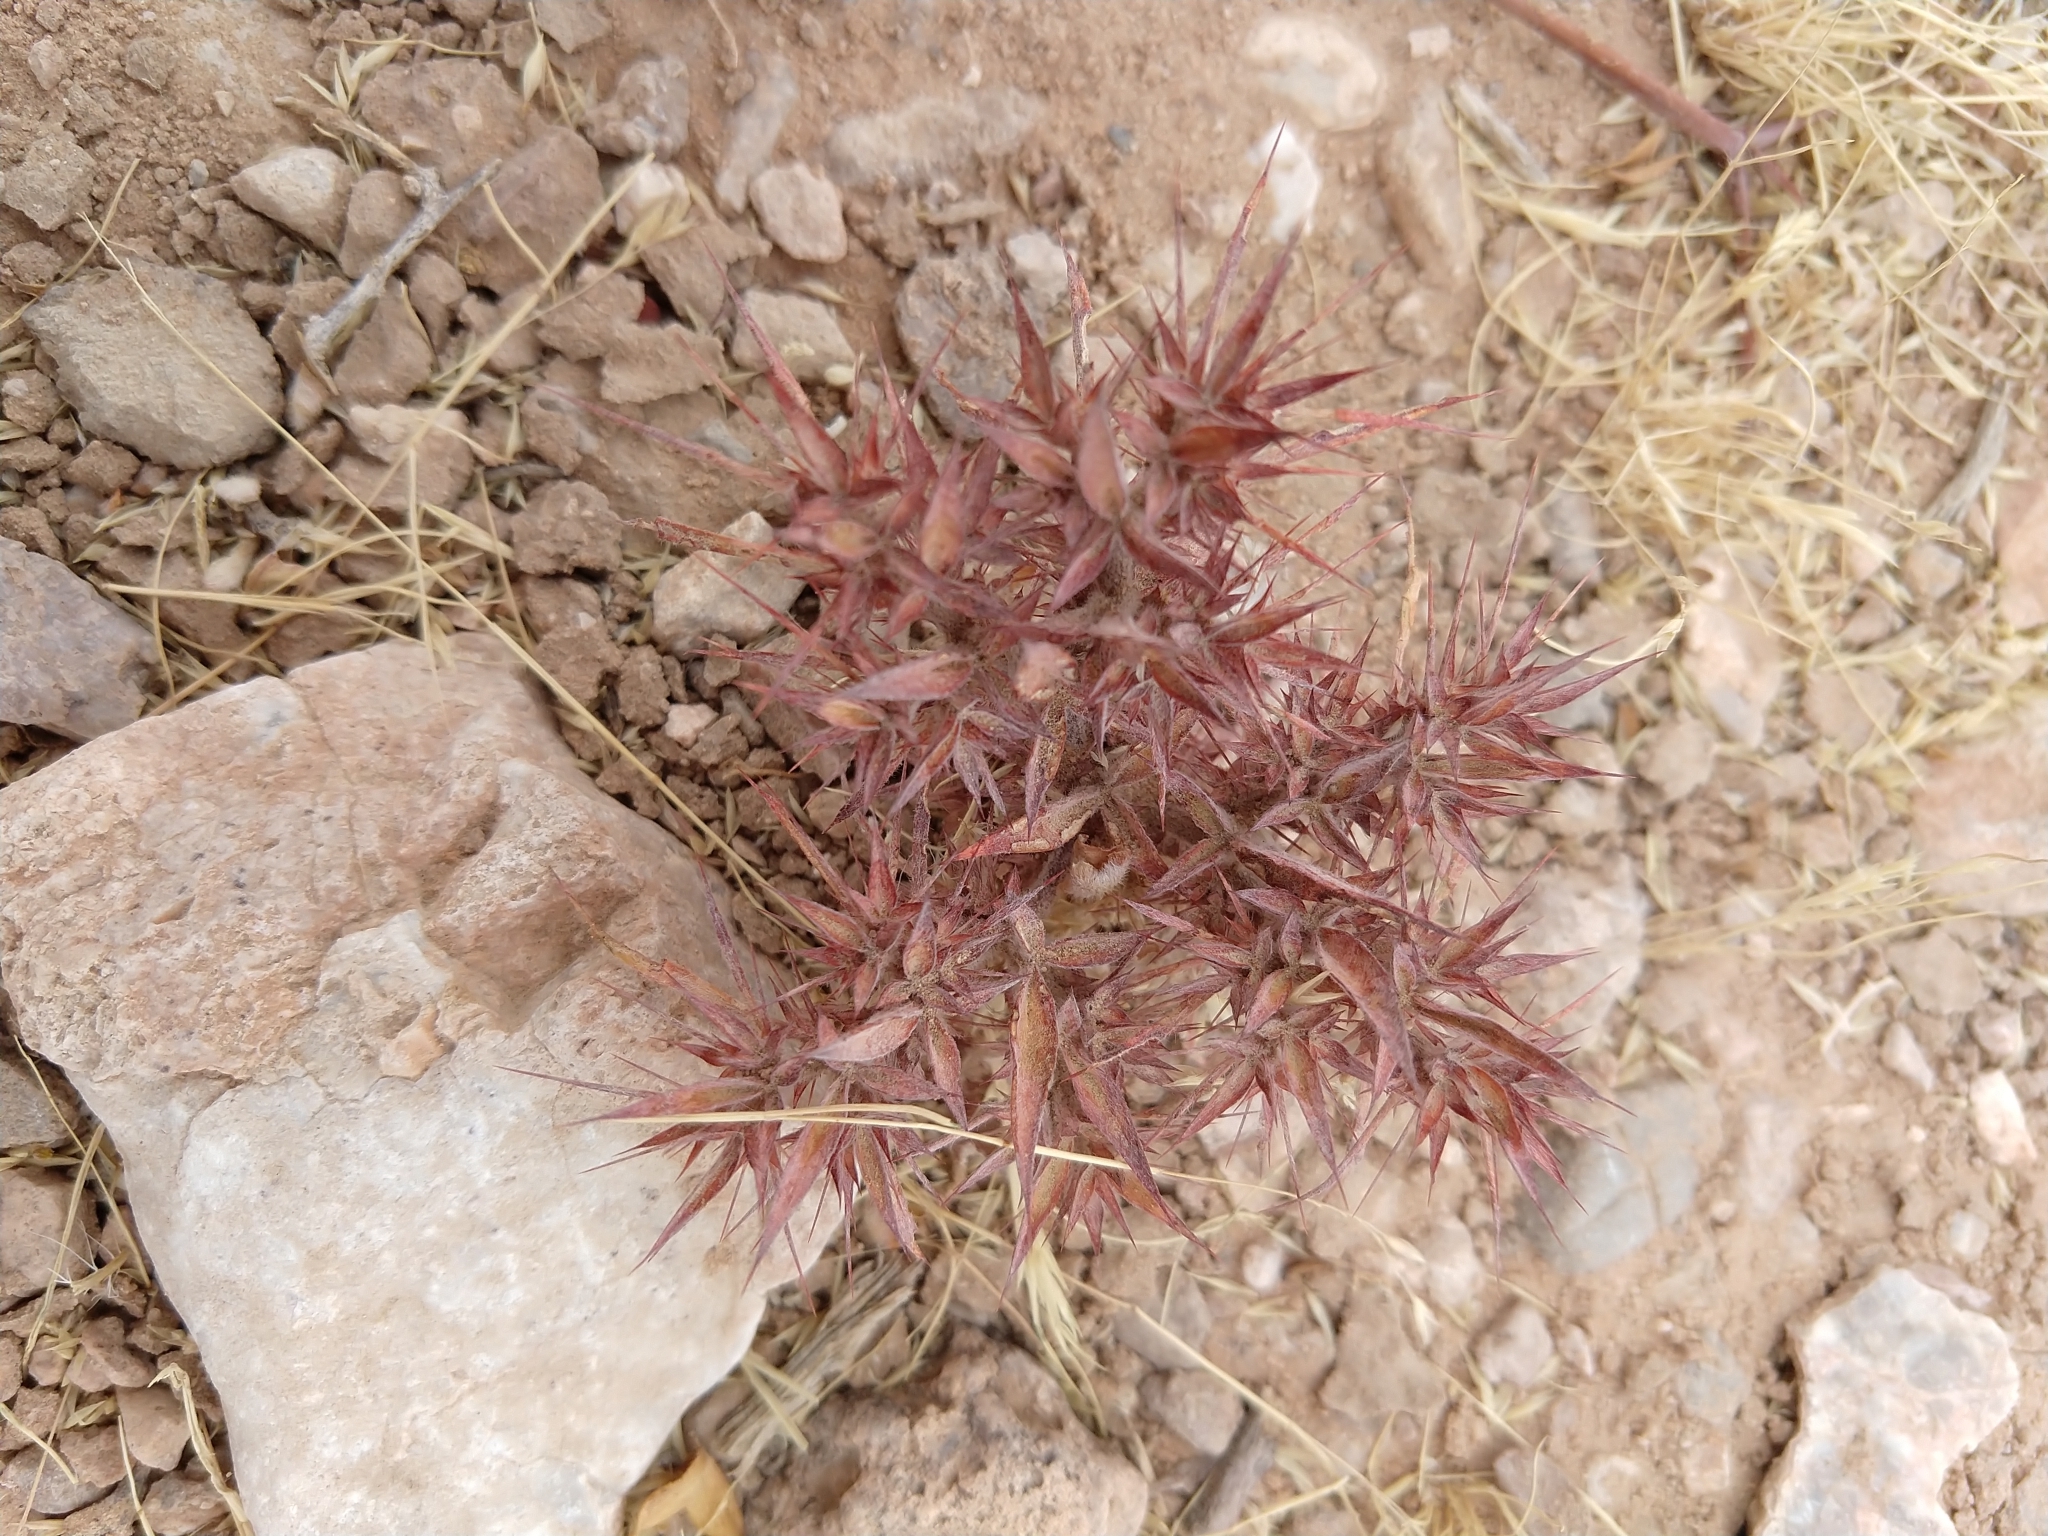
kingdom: Plantae
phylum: Tracheophyta
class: Magnoliopsida
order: Caryophyllales
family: Polygonaceae
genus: Chorizanthe
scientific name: Chorizanthe rigida
